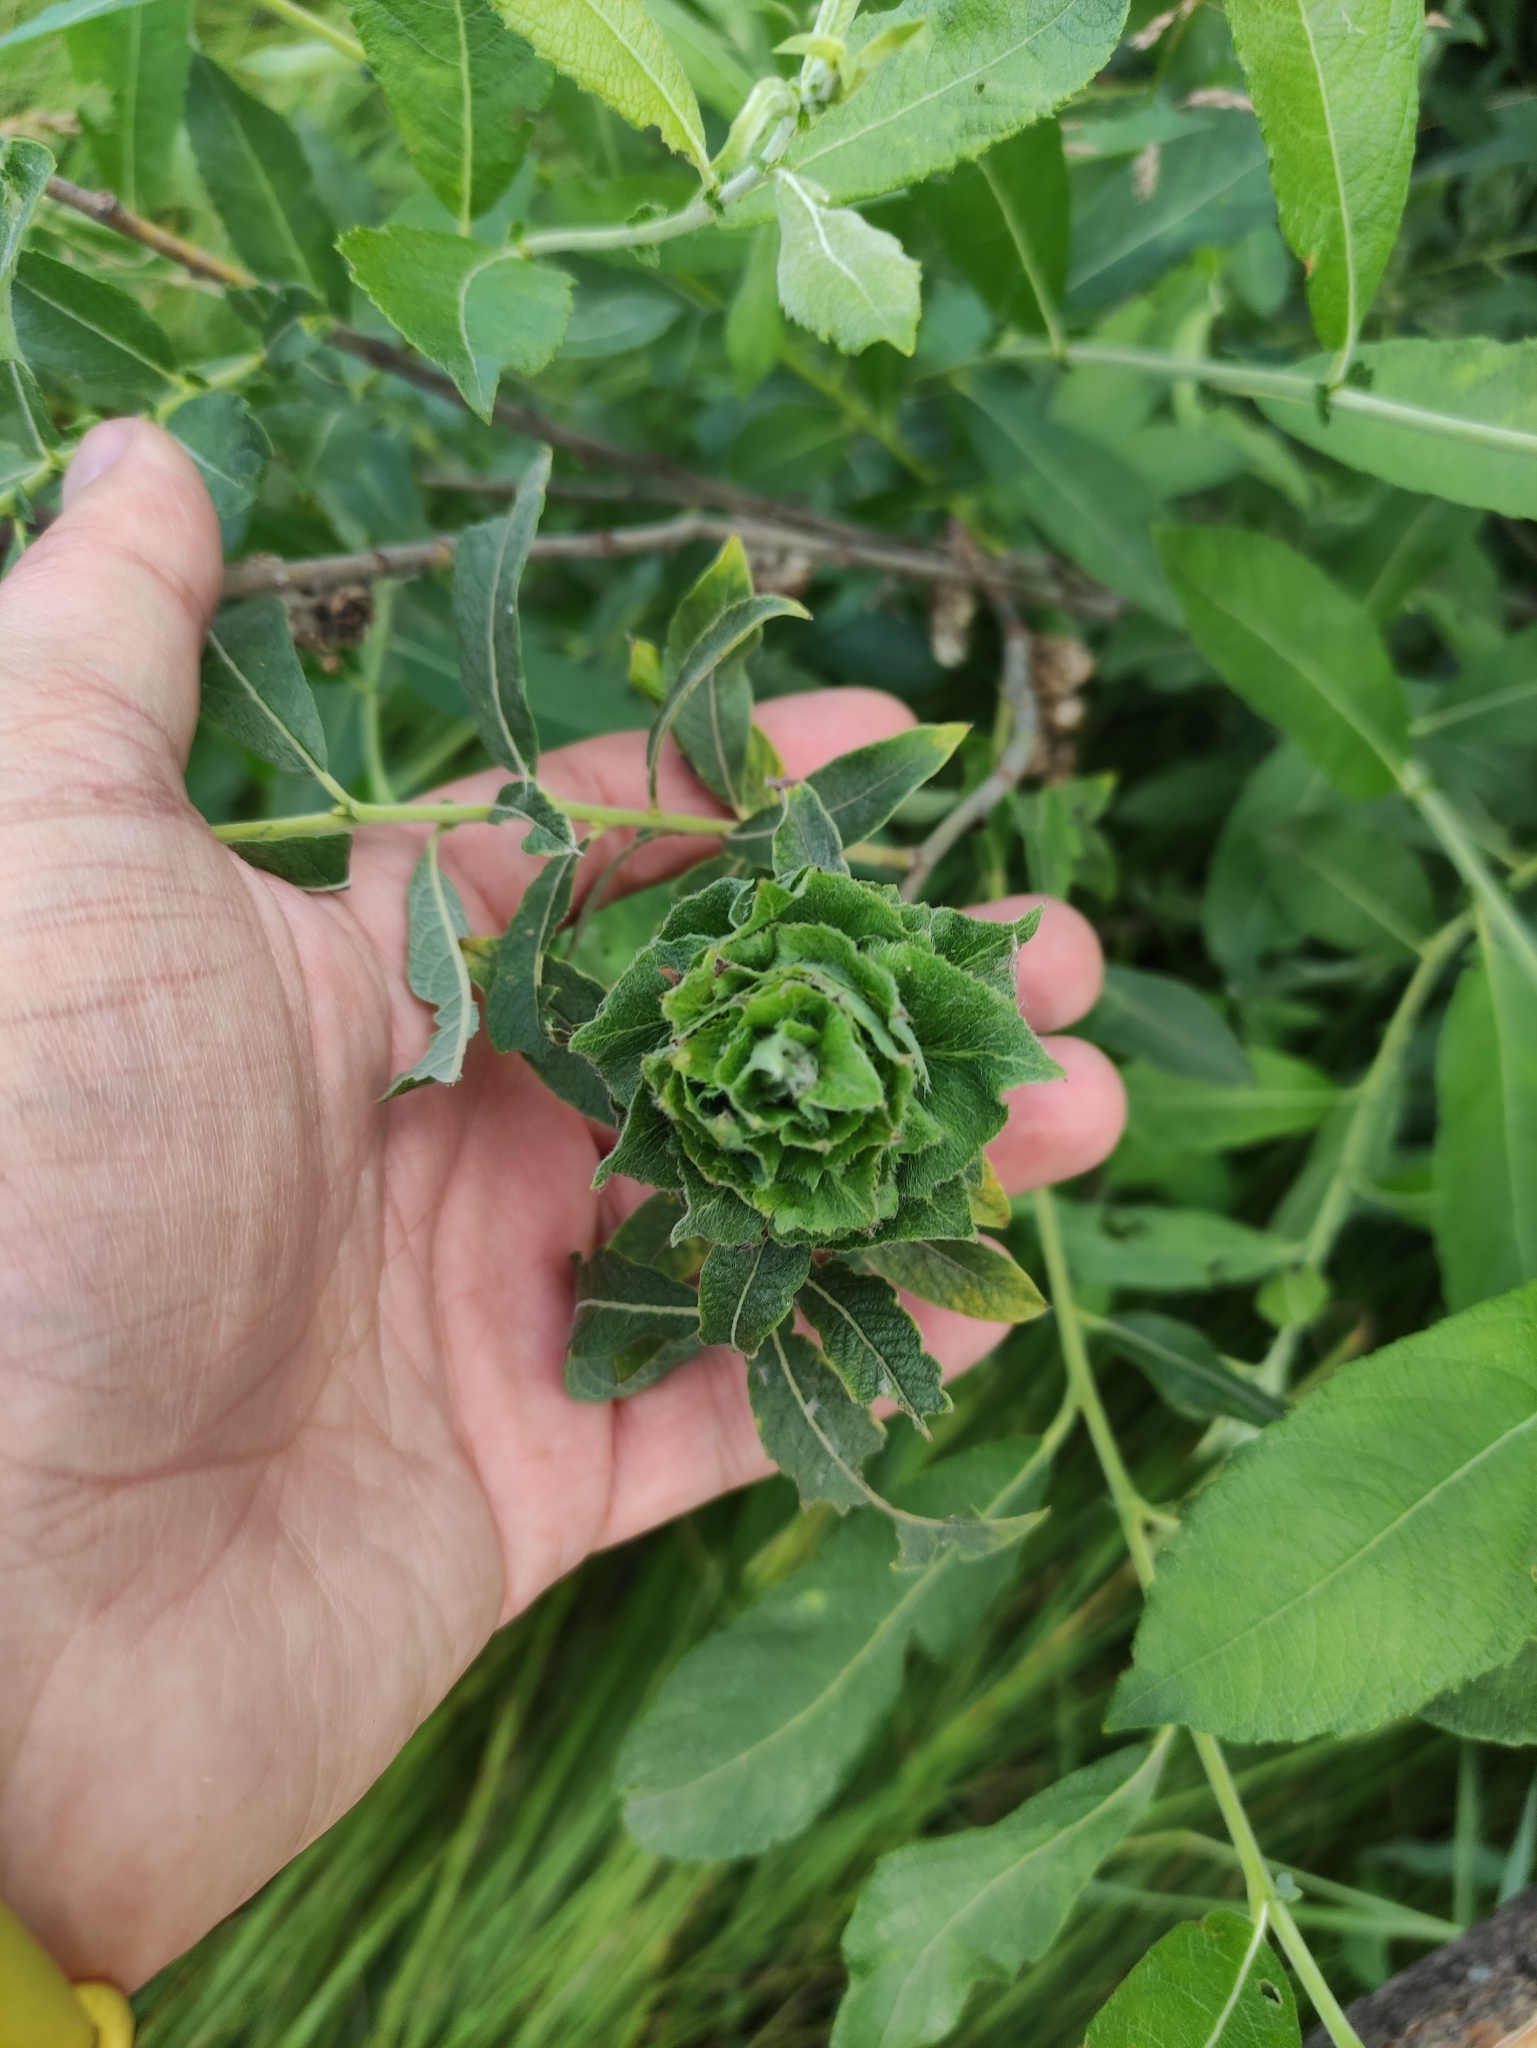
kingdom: Animalia
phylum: Arthropoda
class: Insecta
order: Diptera
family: Cecidomyiidae
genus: Rabdophaga
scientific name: Rabdophaga rosaria
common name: Willow rose gall midge
